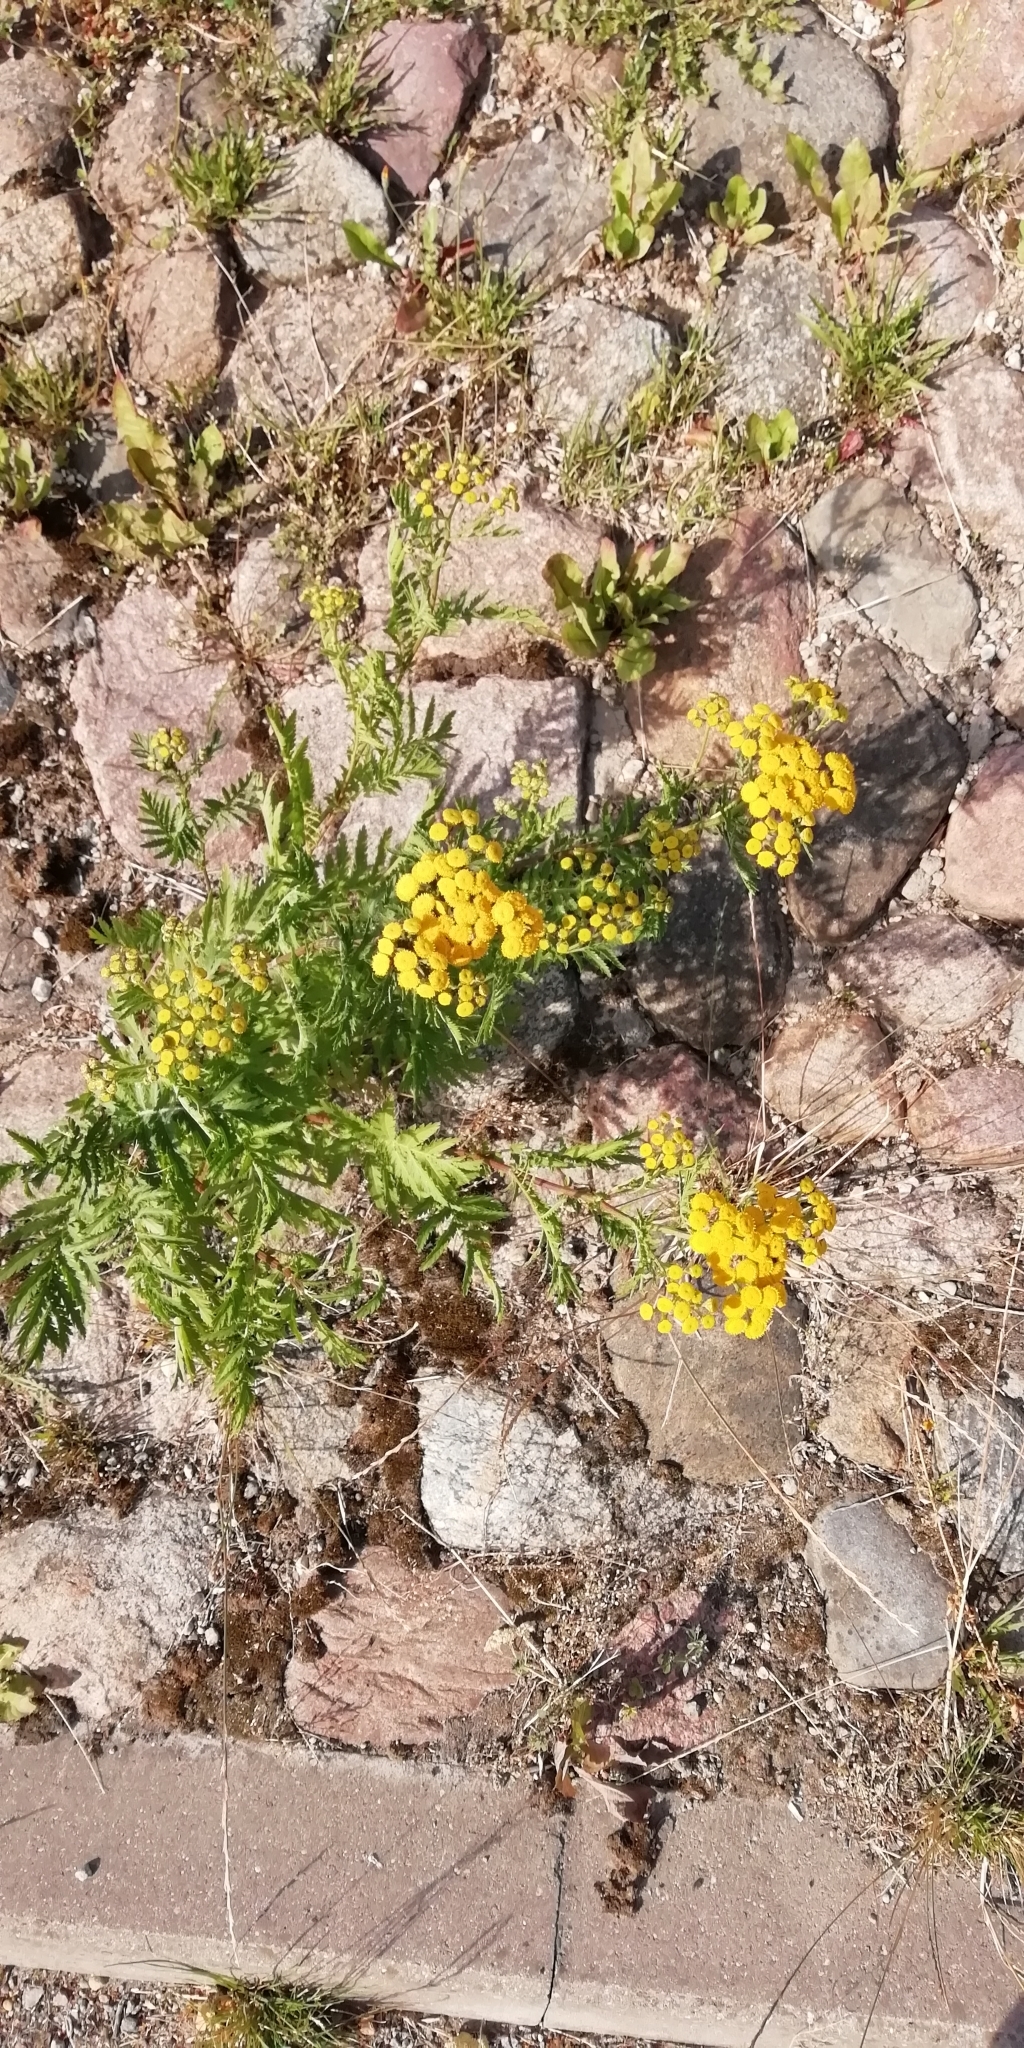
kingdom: Plantae
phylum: Tracheophyta
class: Magnoliopsida
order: Asterales
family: Asteraceae
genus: Tanacetum
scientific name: Tanacetum vulgare
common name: Common tansy
